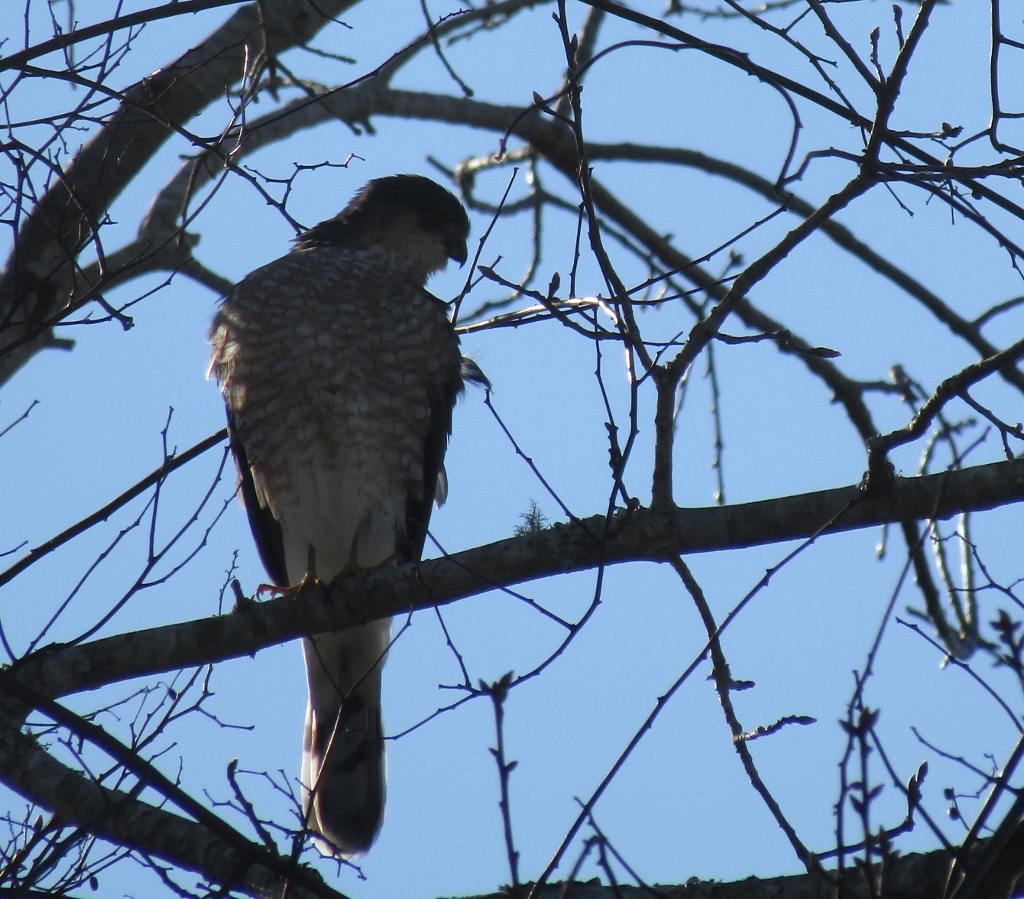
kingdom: Animalia
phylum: Chordata
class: Aves
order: Accipitriformes
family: Accipitridae
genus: Accipiter
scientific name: Accipiter striatus
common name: Sharp-shinned hawk
